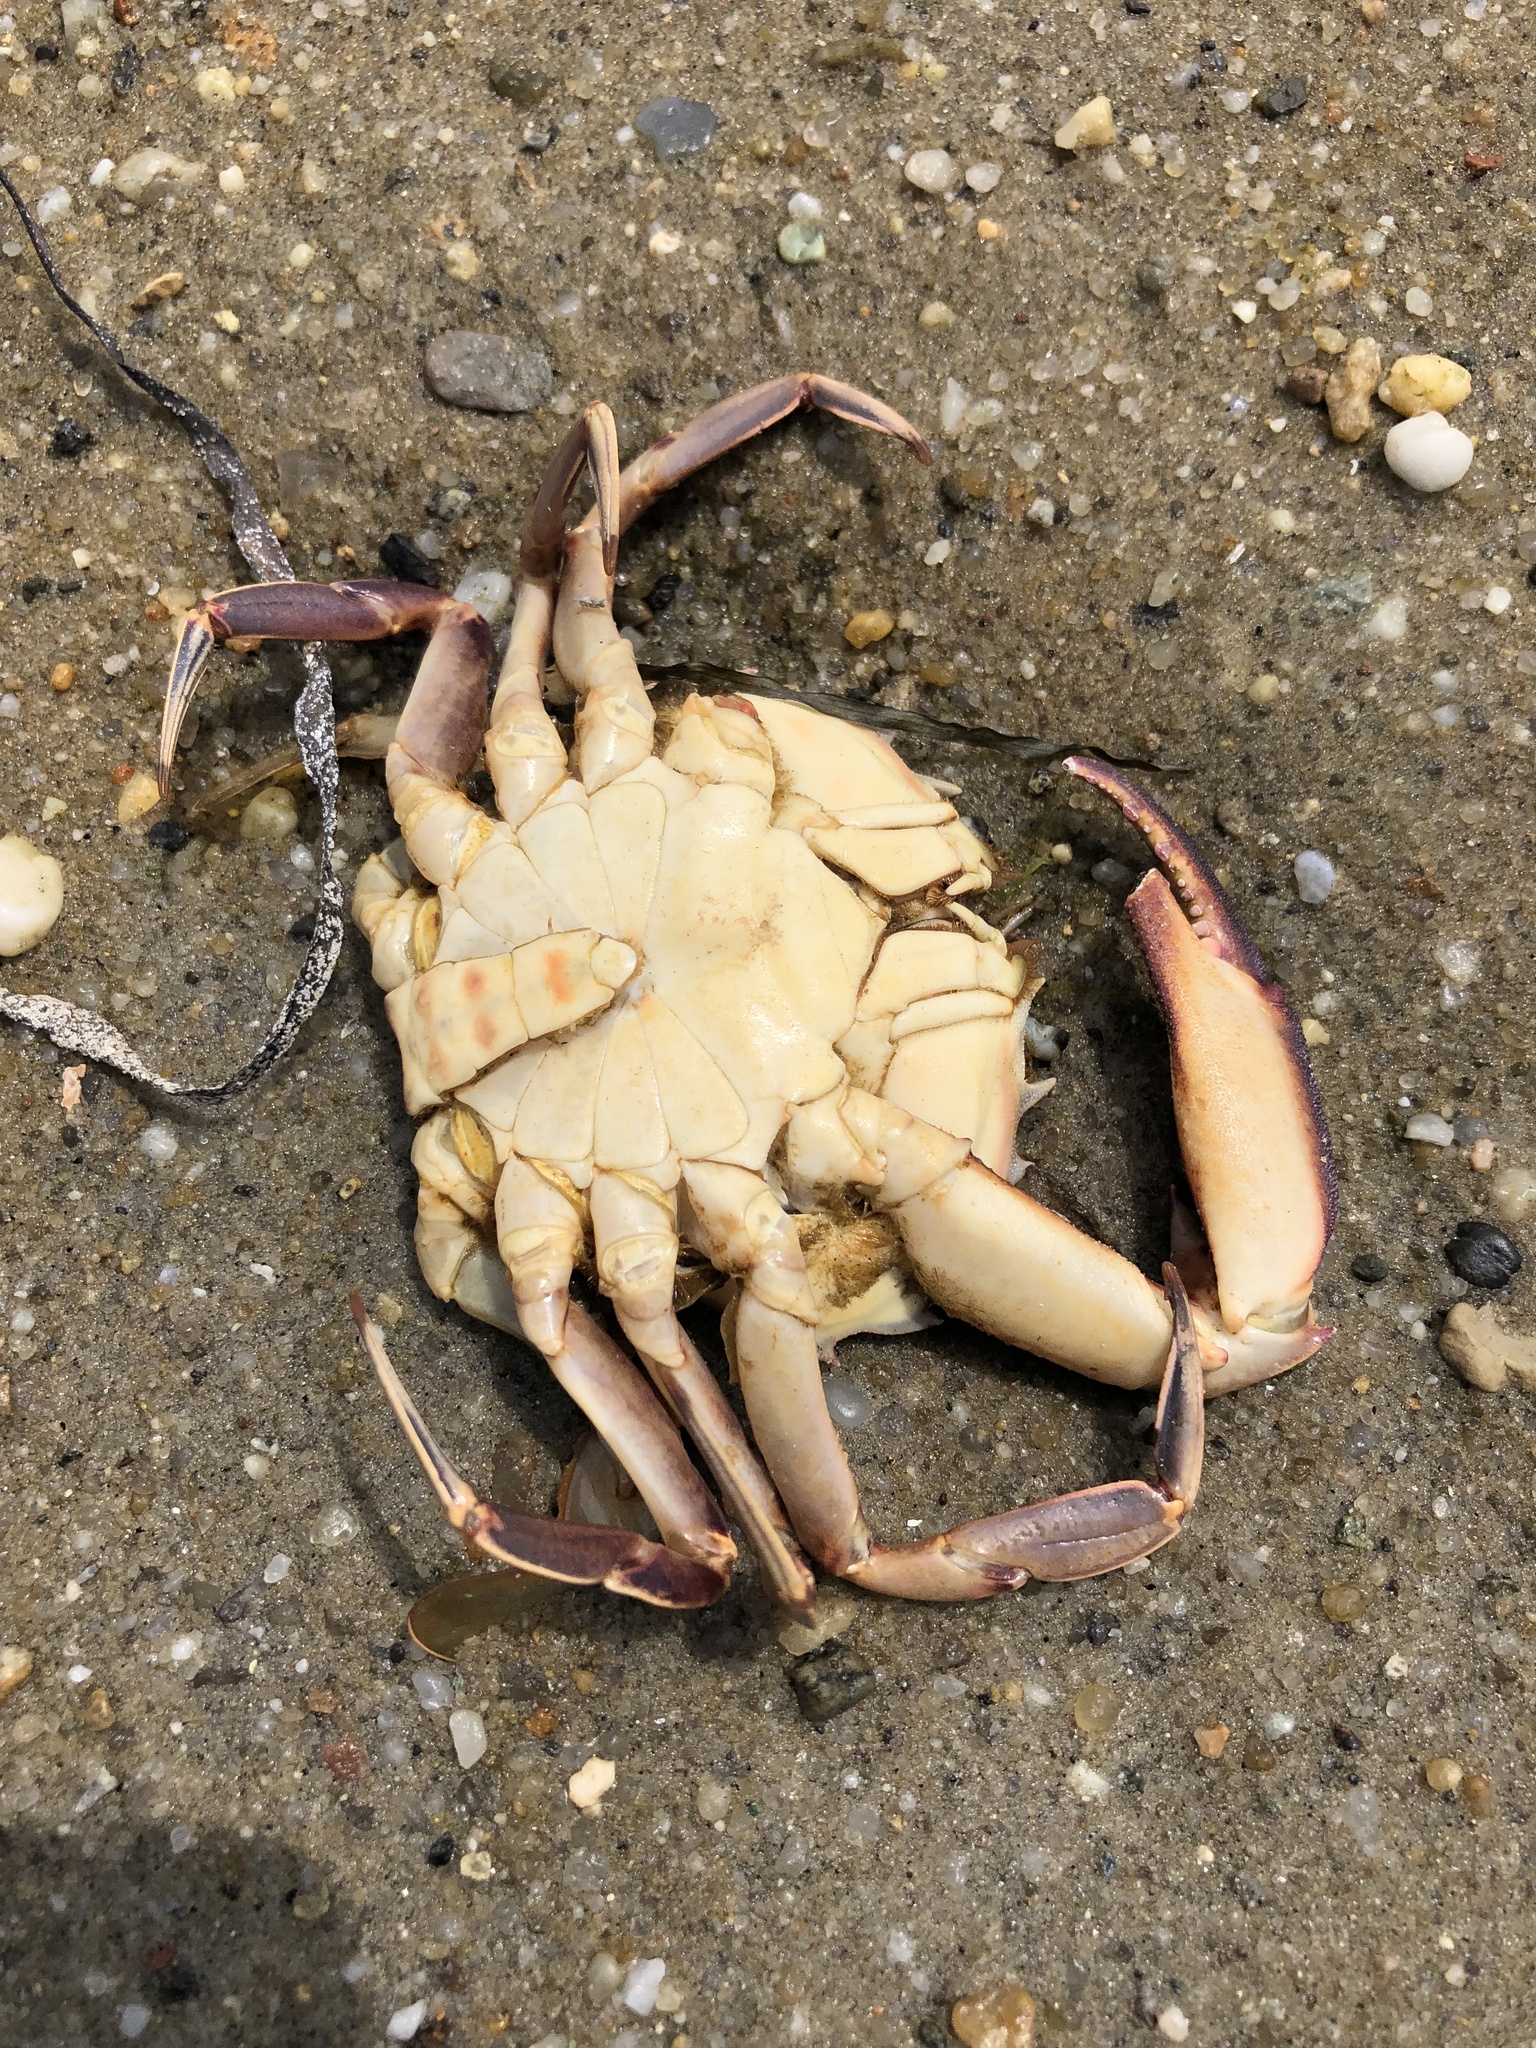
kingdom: Animalia
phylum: Arthropoda
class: Malacostraca
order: Decapoda
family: Ovalipidae
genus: Ovalipes
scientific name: Ovalipes ocellatus
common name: Lady crab
